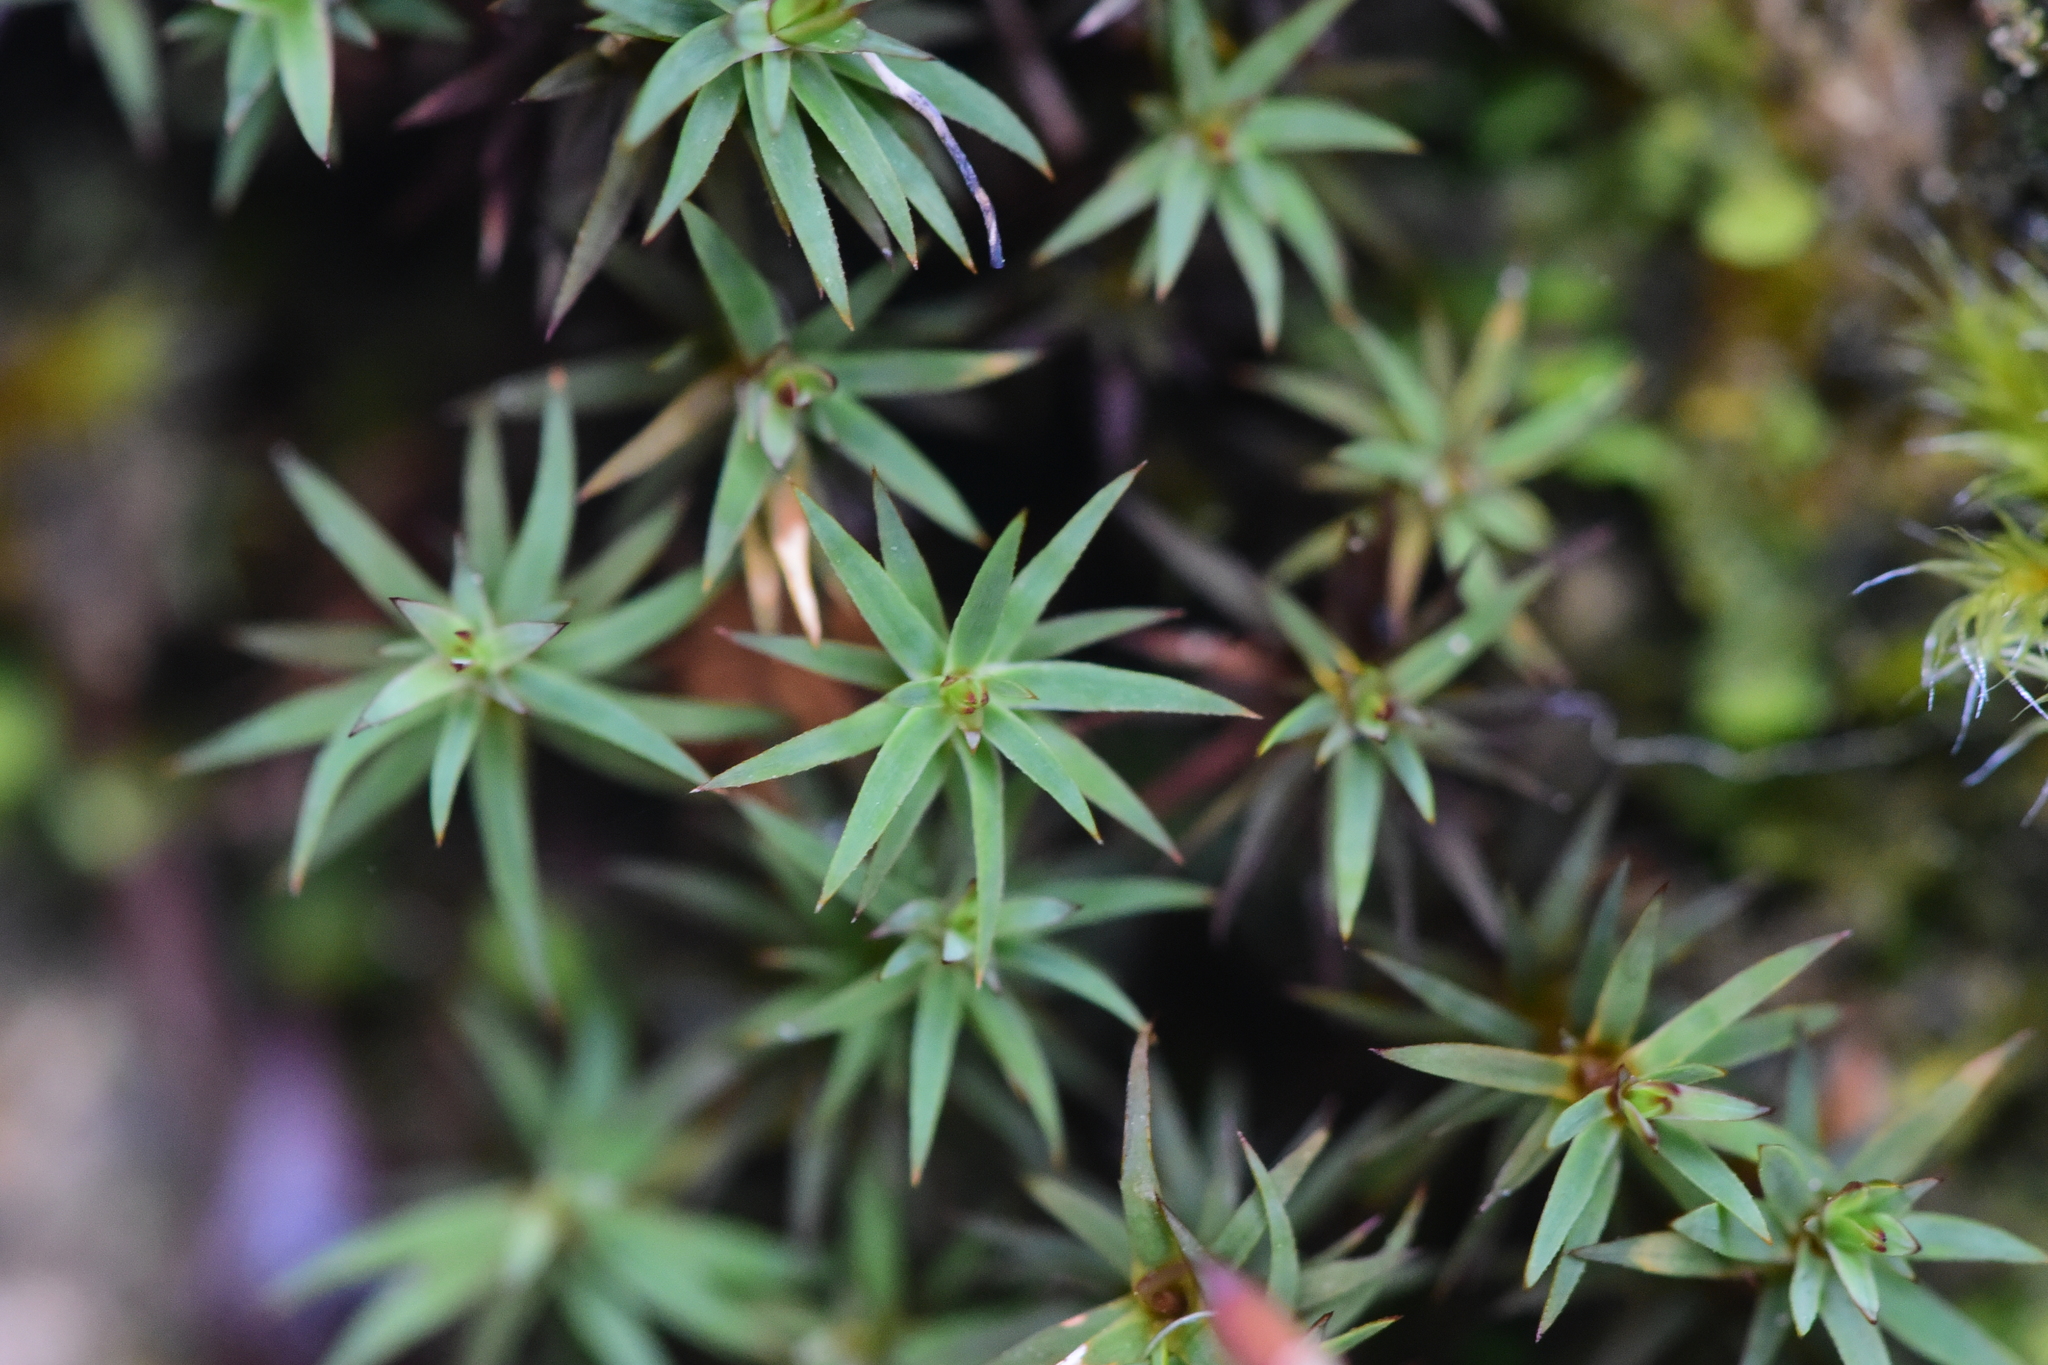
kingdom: Plantae
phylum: Bryophyta
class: Polytrichopsida
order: Polytrichales
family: Polytrichaceae
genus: Pogonatum
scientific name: Pogonatum urnigerum
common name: Urn hair moss
